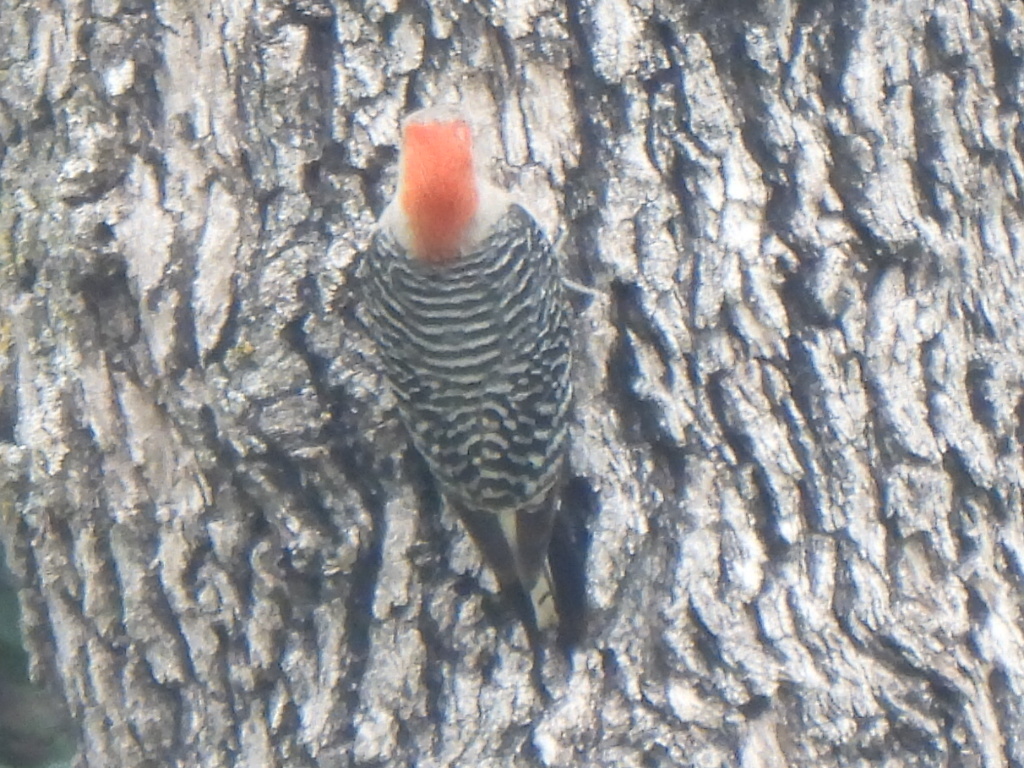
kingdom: Animalia
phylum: Chordata
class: Aves
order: Piciformes
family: Picidae
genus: Melanerpes
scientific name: Melanerpes carolinus
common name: Red-bellied woodpecker
